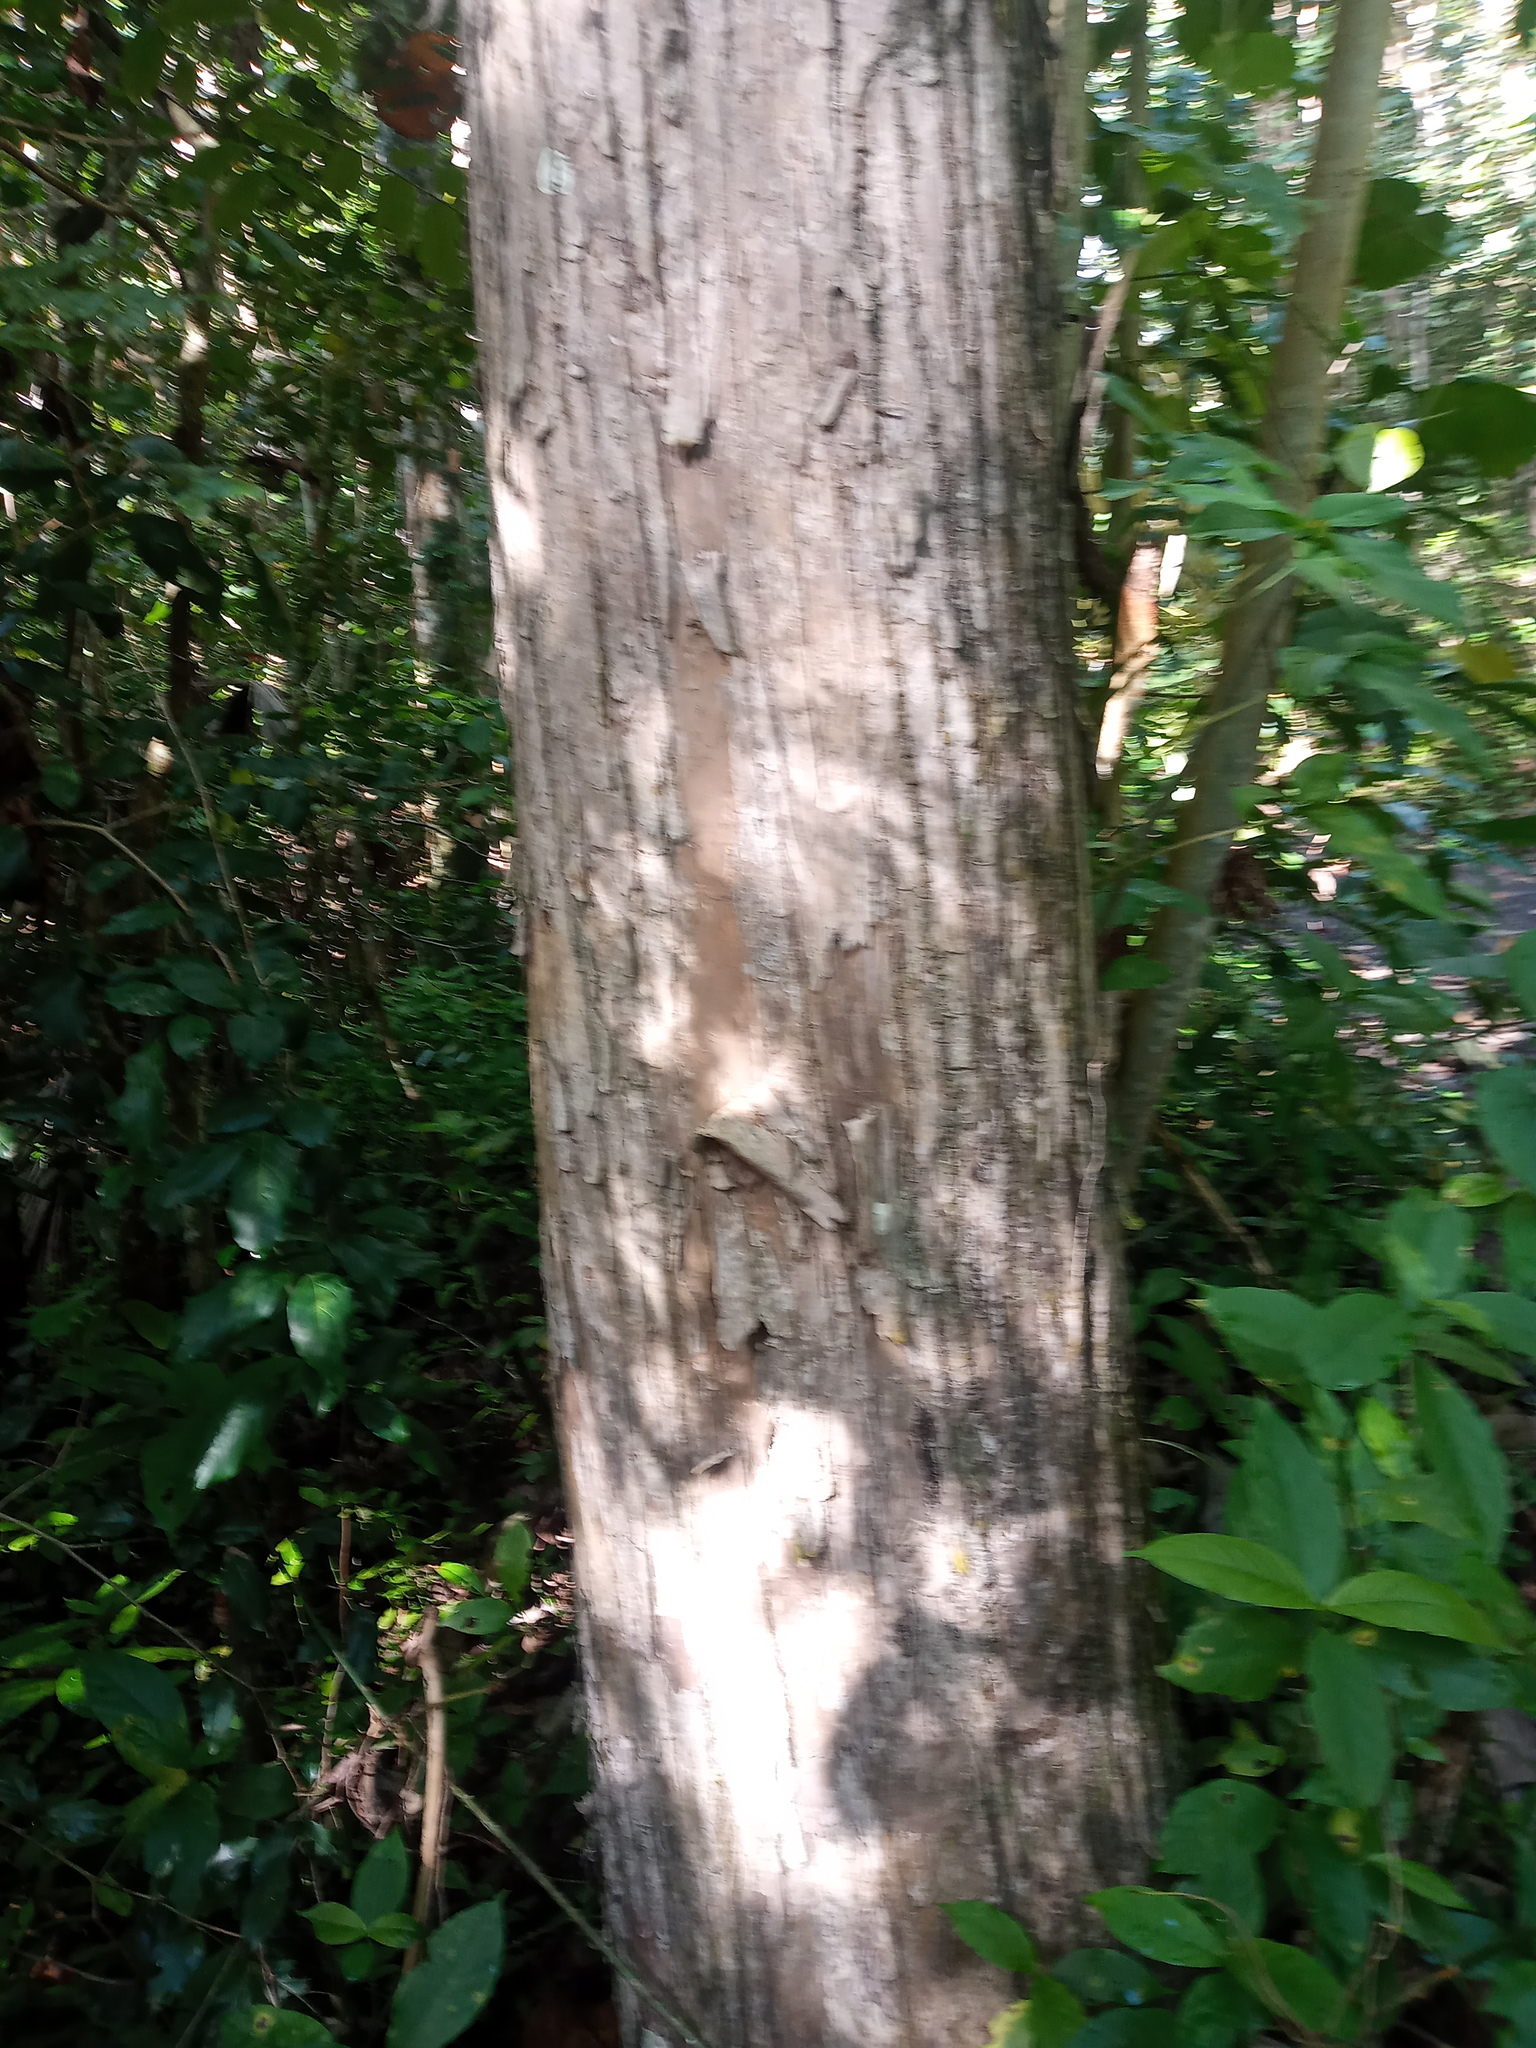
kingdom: Plantae
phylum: Tracheophyta
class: Magnoliopsida
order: Lamiales
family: Lamiaceae
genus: Tectona
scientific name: Tectona grandis
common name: Teak
